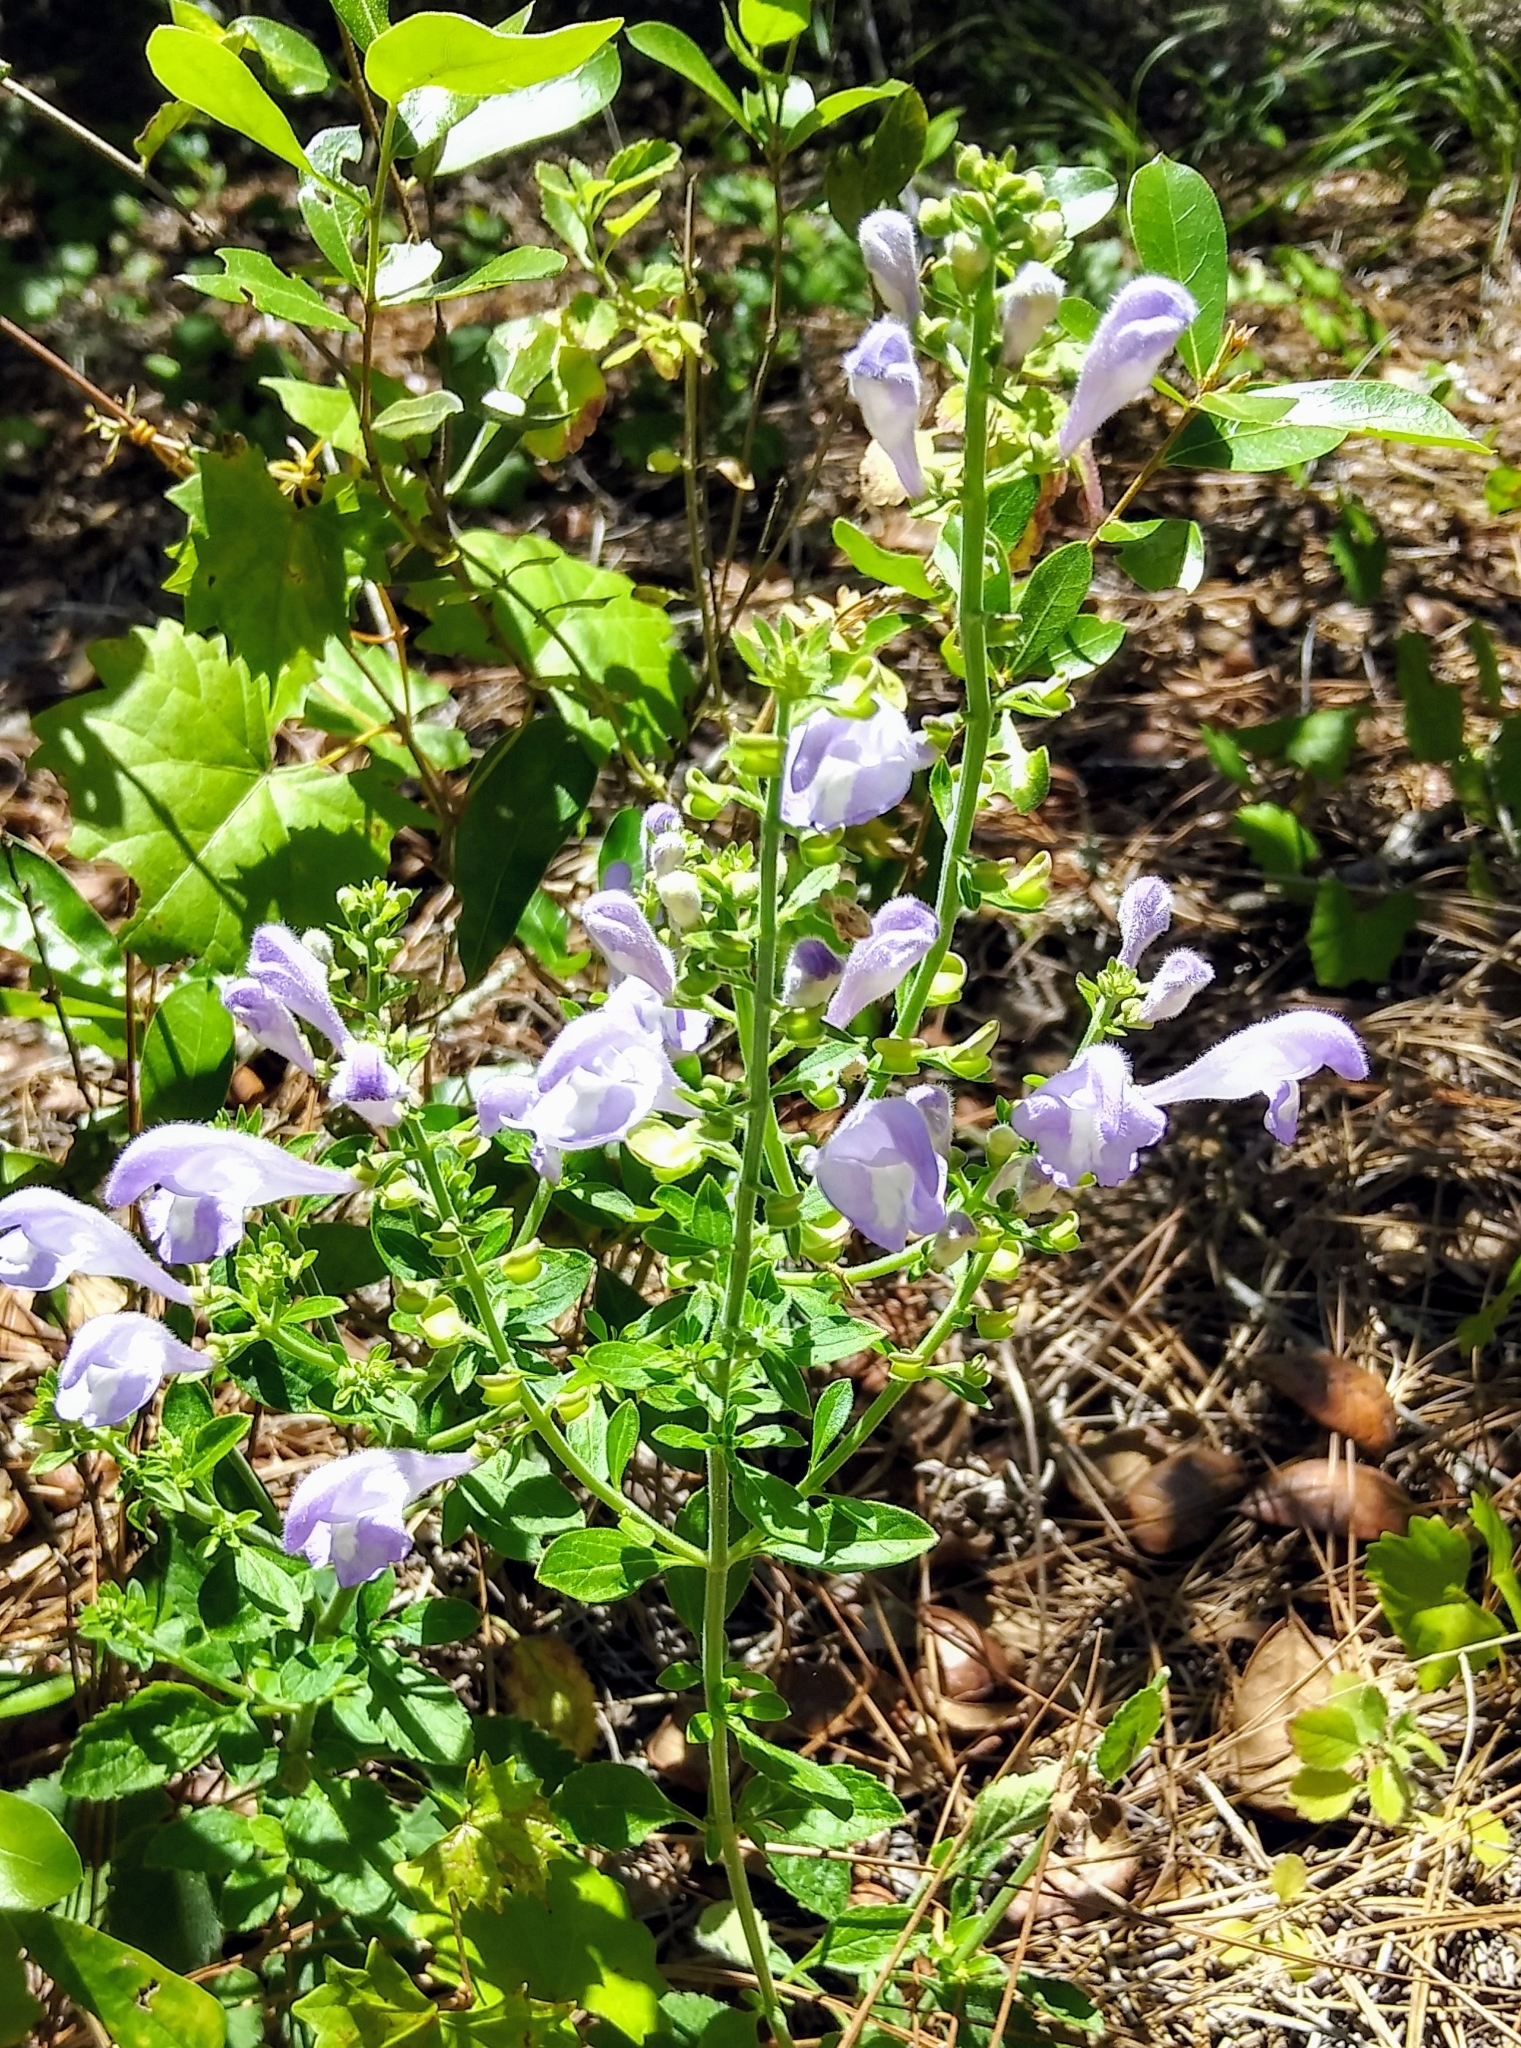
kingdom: Plantae
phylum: Tracheophyta
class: Magnoliopsida
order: Lamiales
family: Lamiaceae
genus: Scutellaria
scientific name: Scutellaria integrifolia
